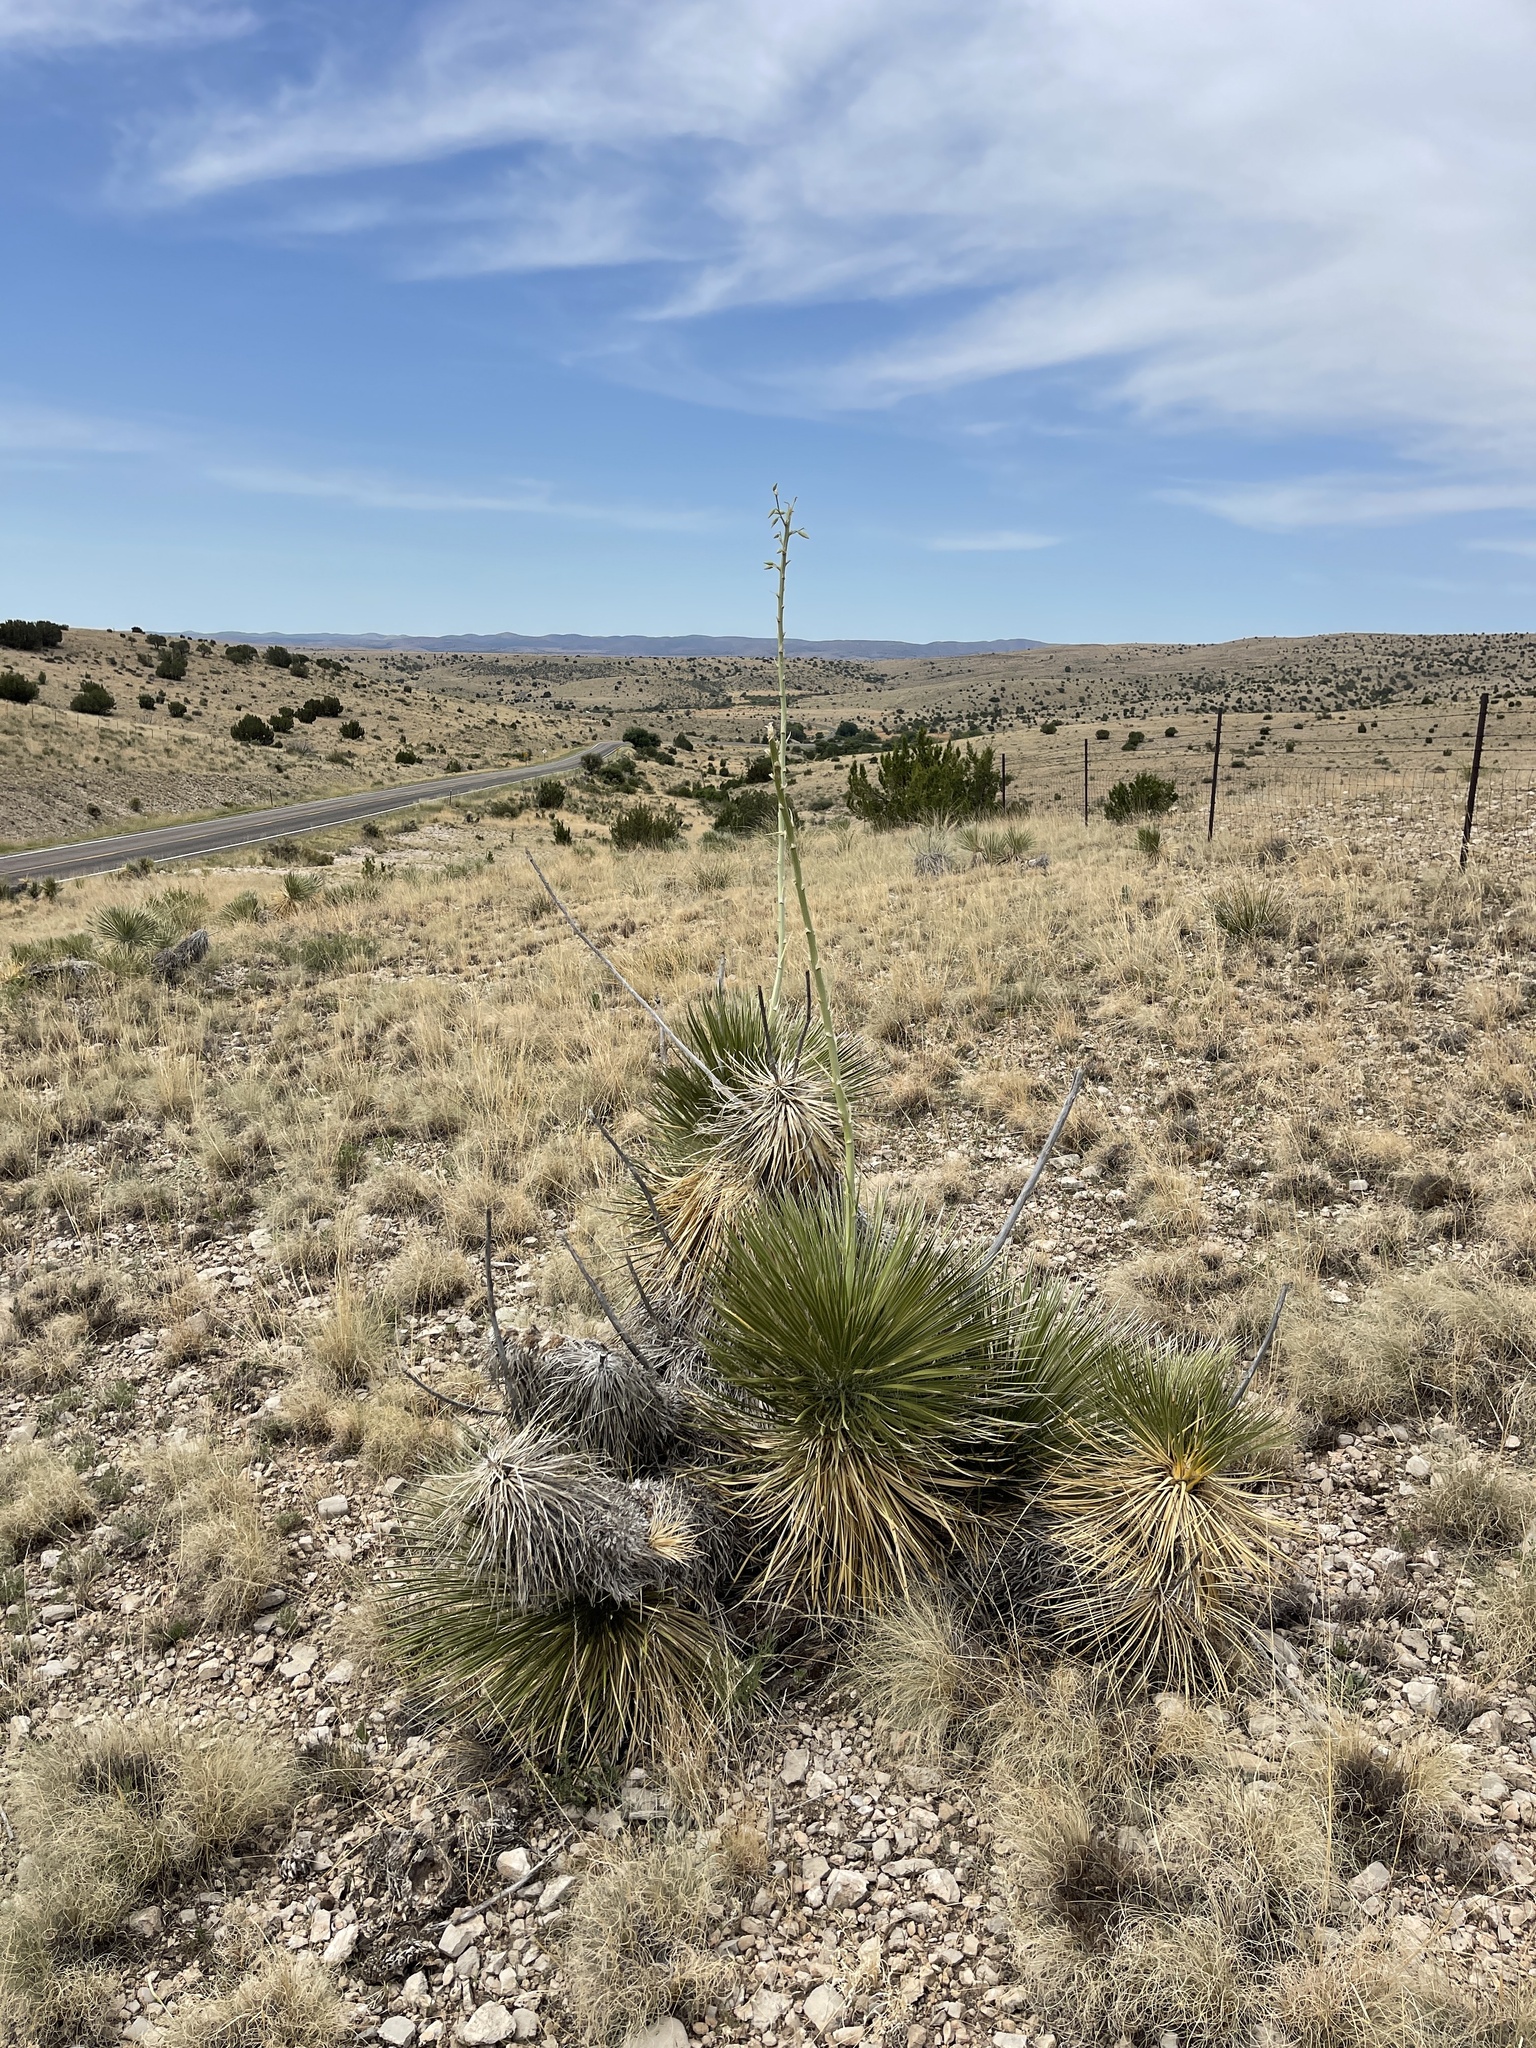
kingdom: Plantae
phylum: Tracheophyta
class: Liliopsida
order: Asparagales
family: Asparagaceae
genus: Yucca
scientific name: Yucca elata
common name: Palmella
